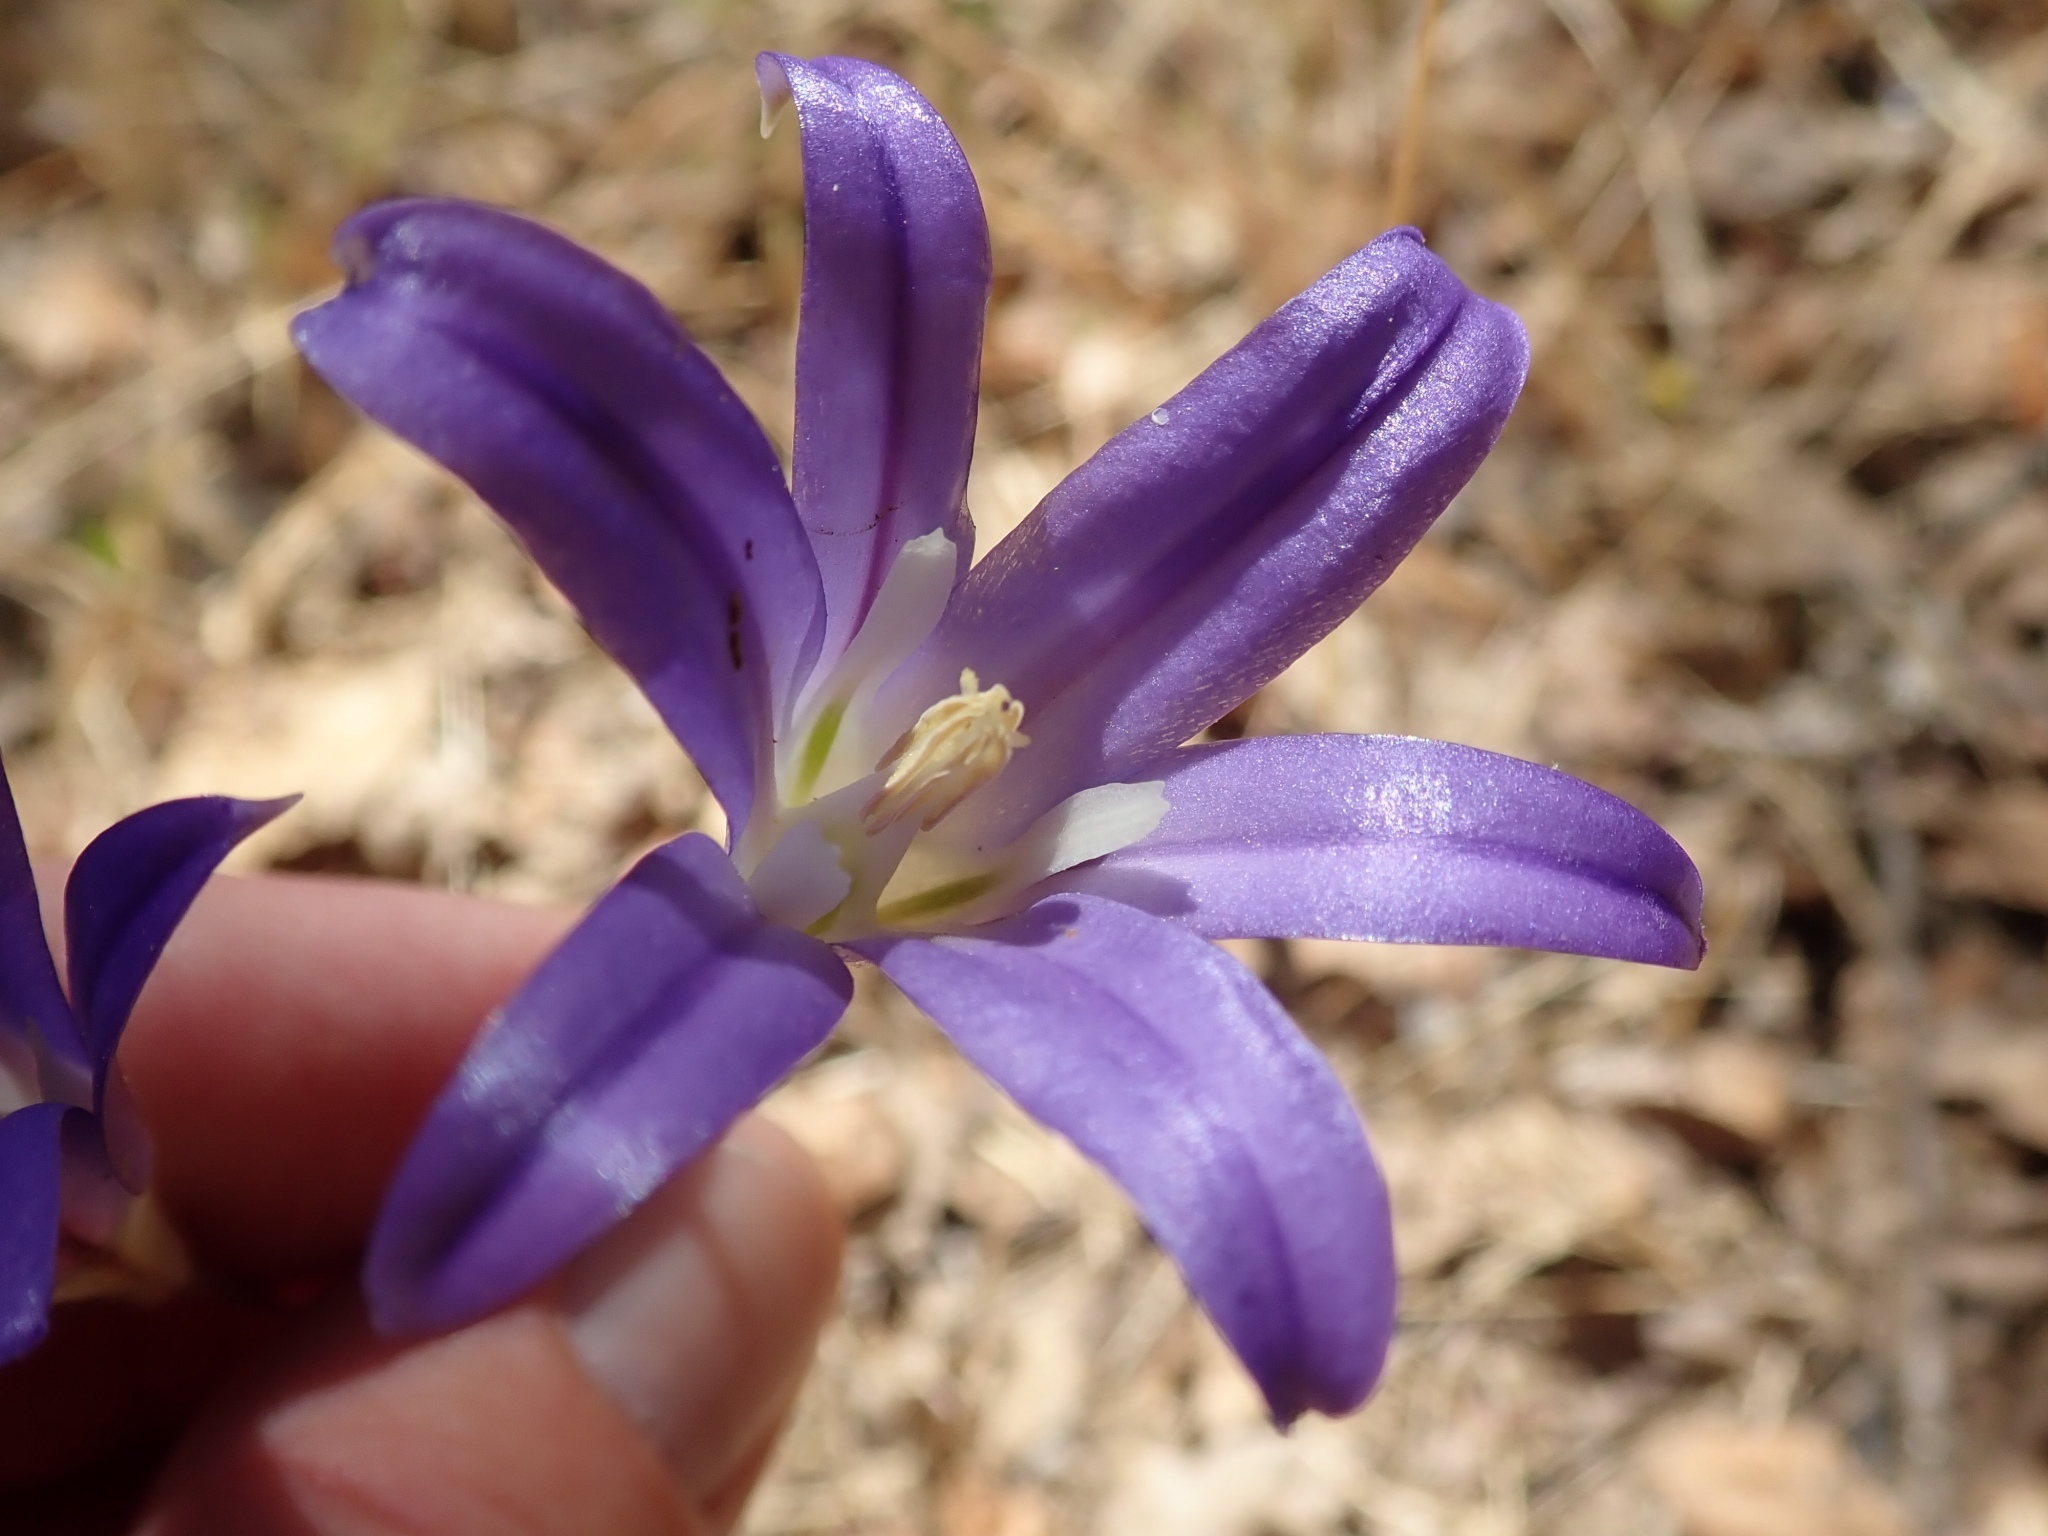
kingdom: Plantae
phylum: Tracheophyta
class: Liliopsida
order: Asparagales
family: Asparagaceae
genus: Brodiaea
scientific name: Brodiaea elegans
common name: Elegant cluster-lily
